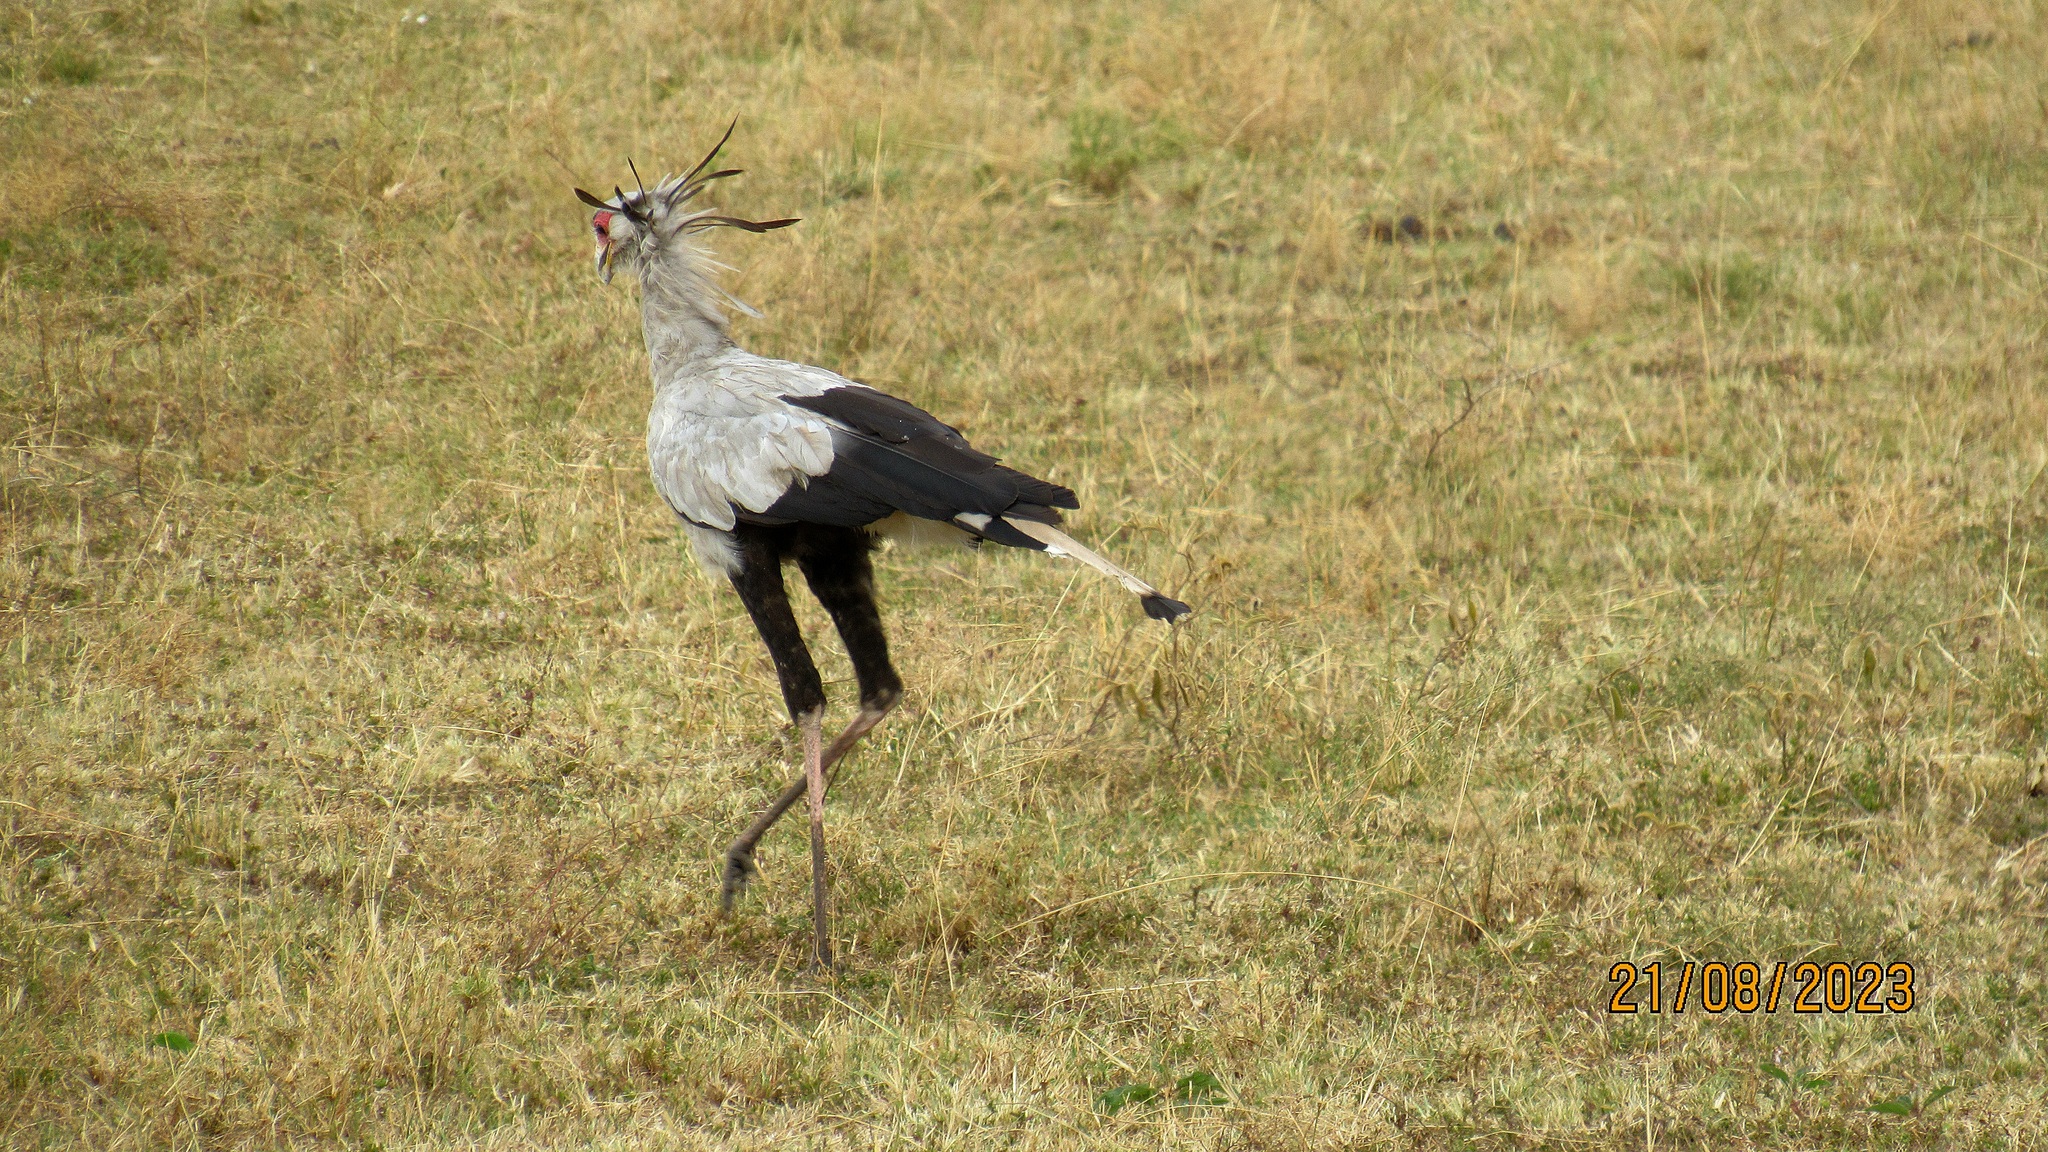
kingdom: Animalia
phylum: Chordata
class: Aves
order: Accipitriformes
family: Sagittariidae
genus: Sagittarius
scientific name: Sagittarius serpentarius
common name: Secretarybird
